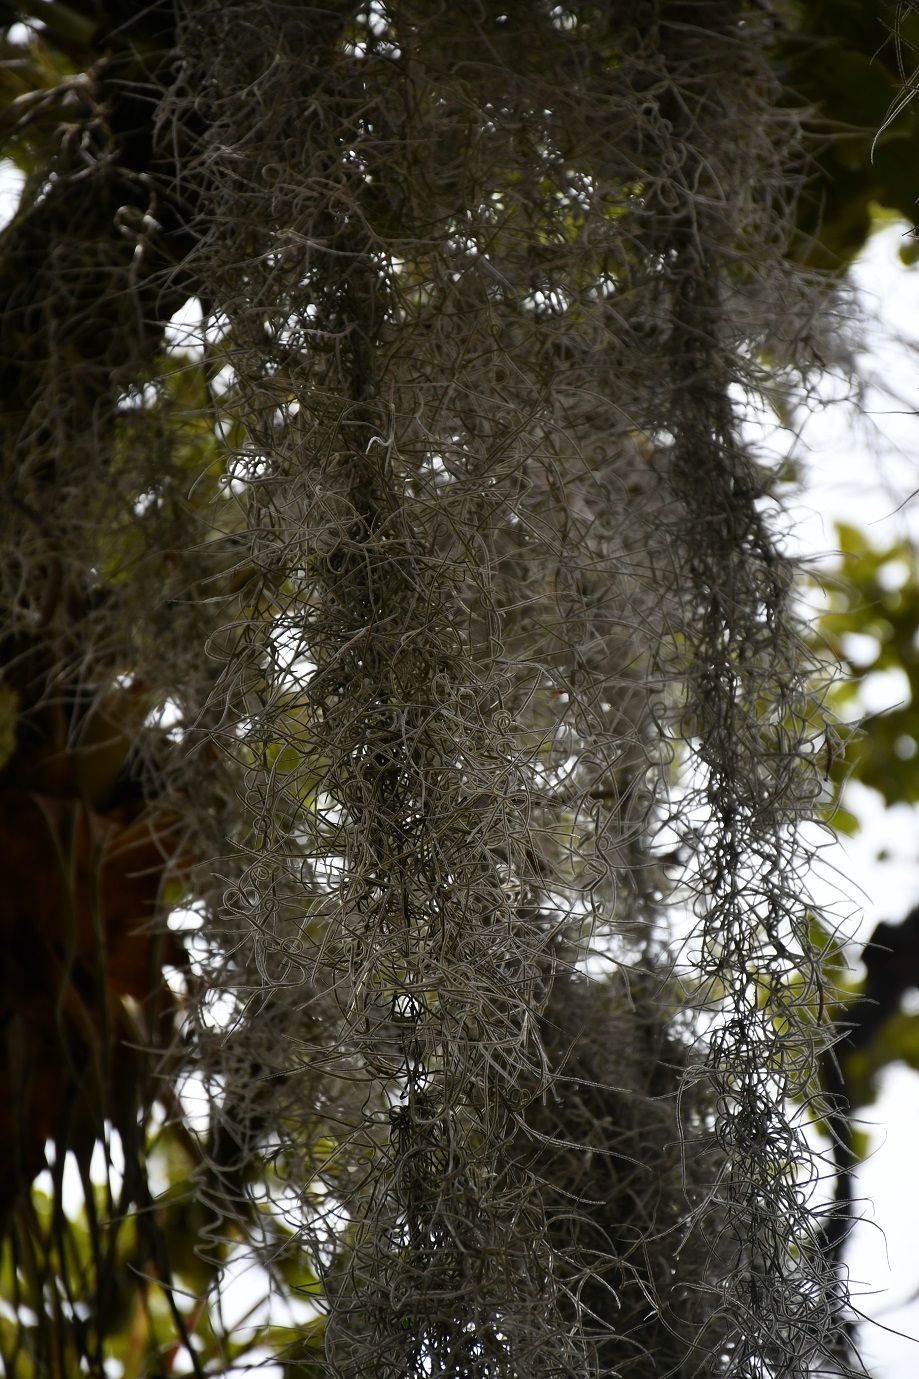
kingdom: Plantae
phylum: Tracheophyta
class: Liliopsida
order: Poales
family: Bromeliaceae
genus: Tillandsia
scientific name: Tillandsia usneoides
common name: Spanish moss
